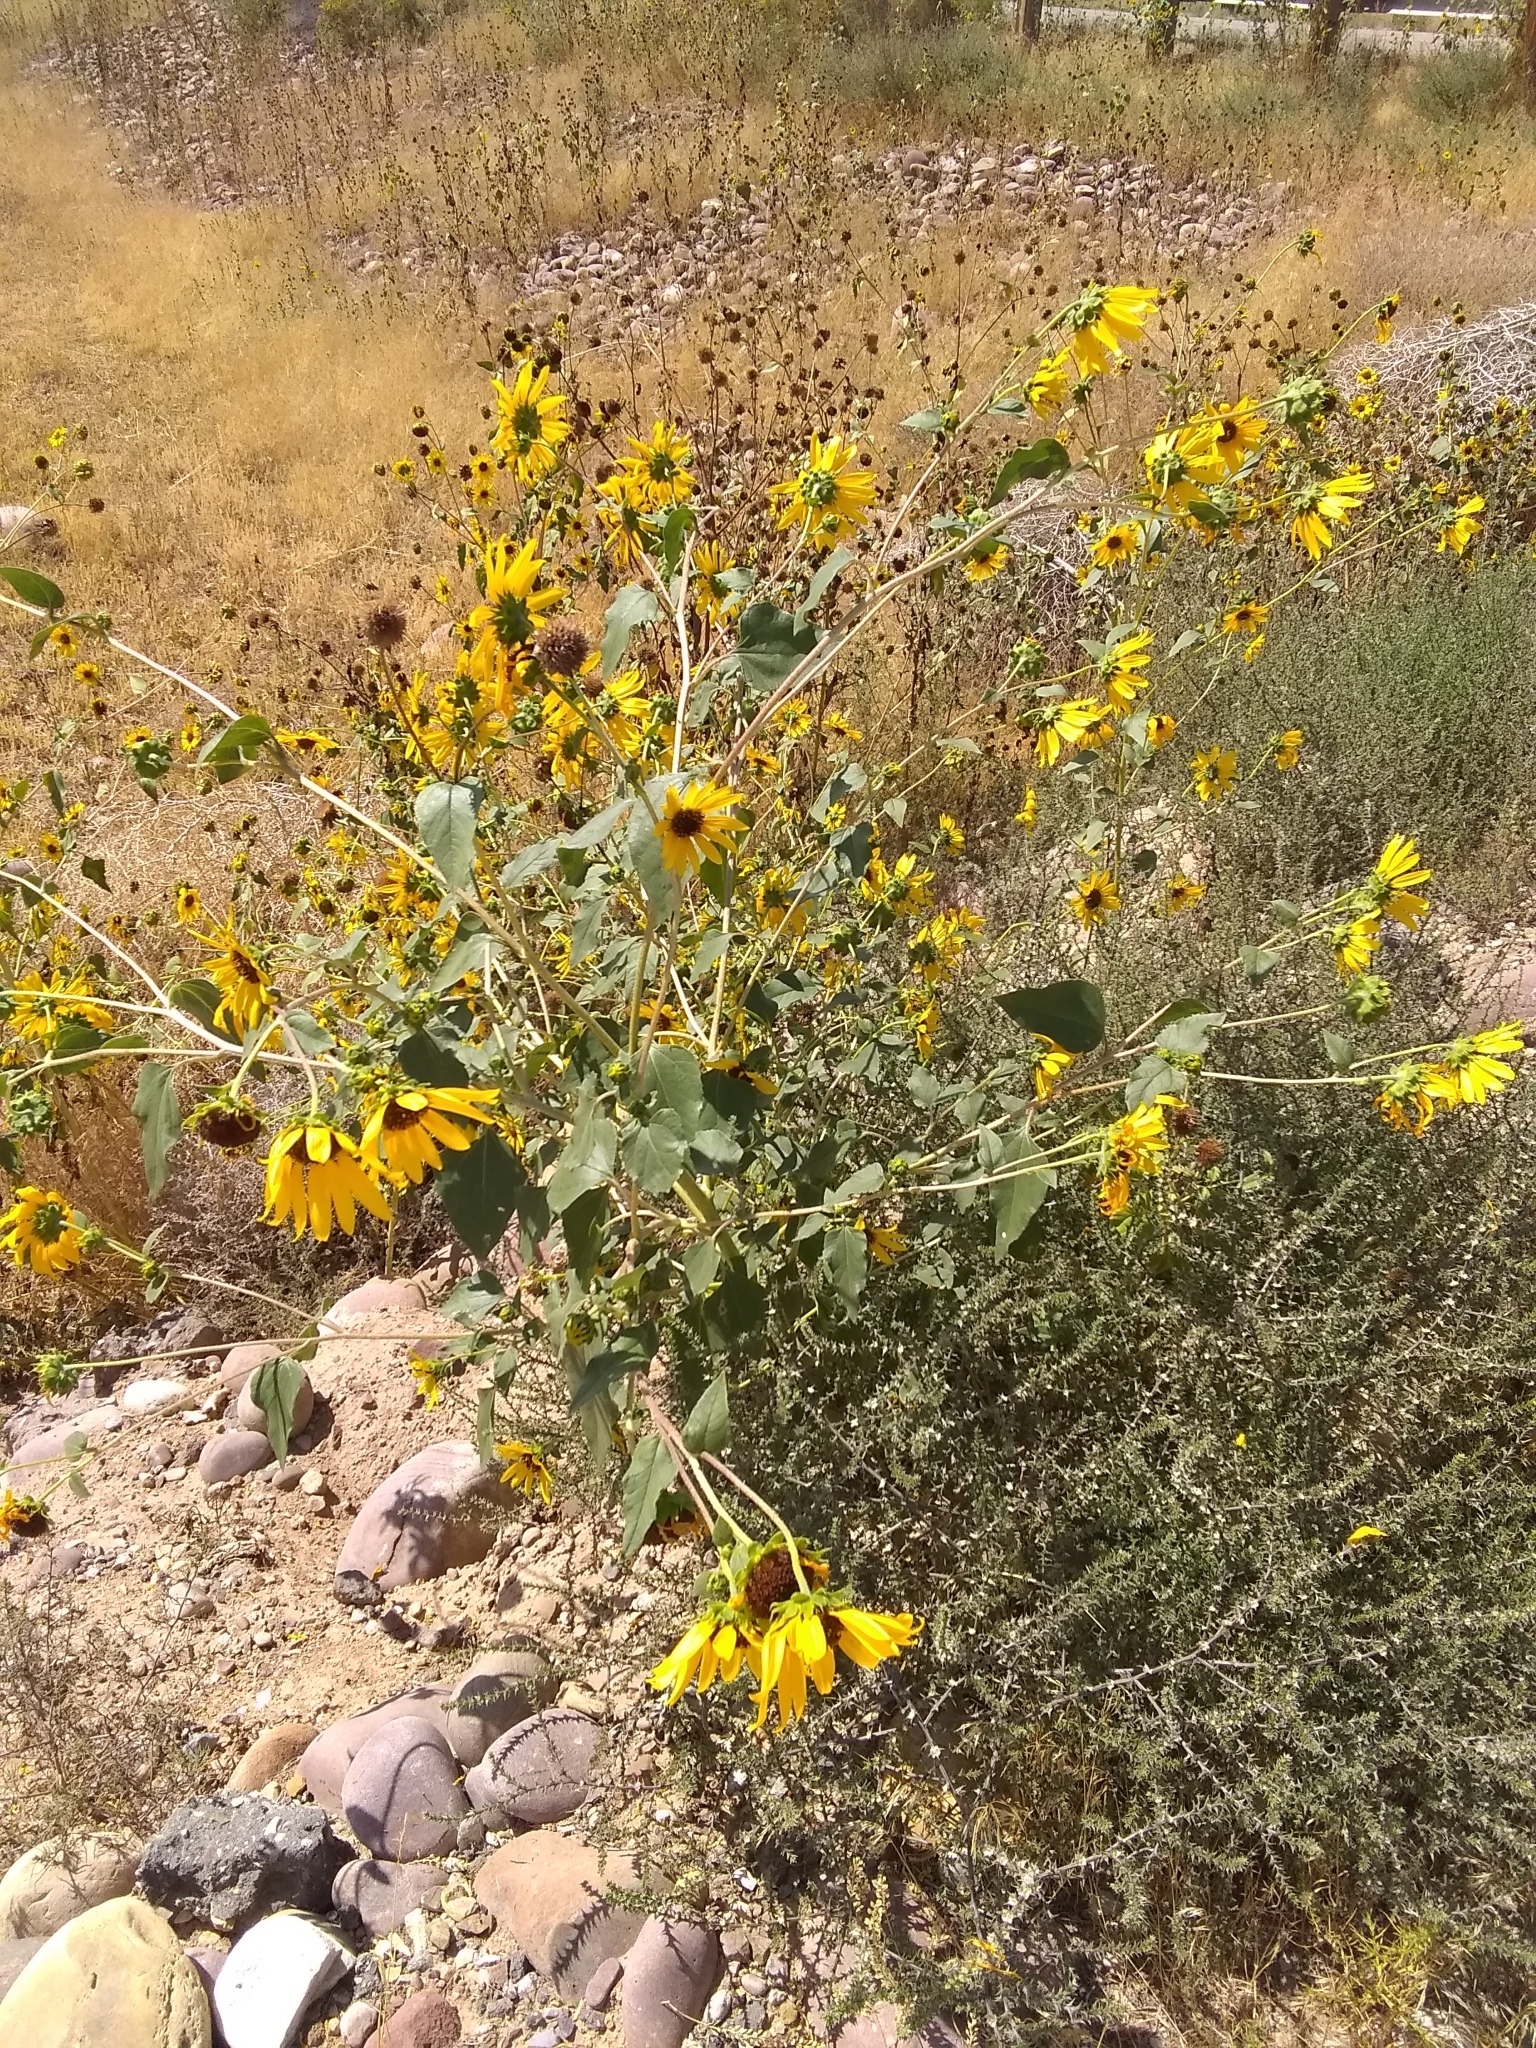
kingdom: Plantae
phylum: Tracheophyta
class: Magnoliopsida
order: Asterales
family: Asteraceae
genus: Helianthus
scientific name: Helianthus annuus
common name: Sunflower
